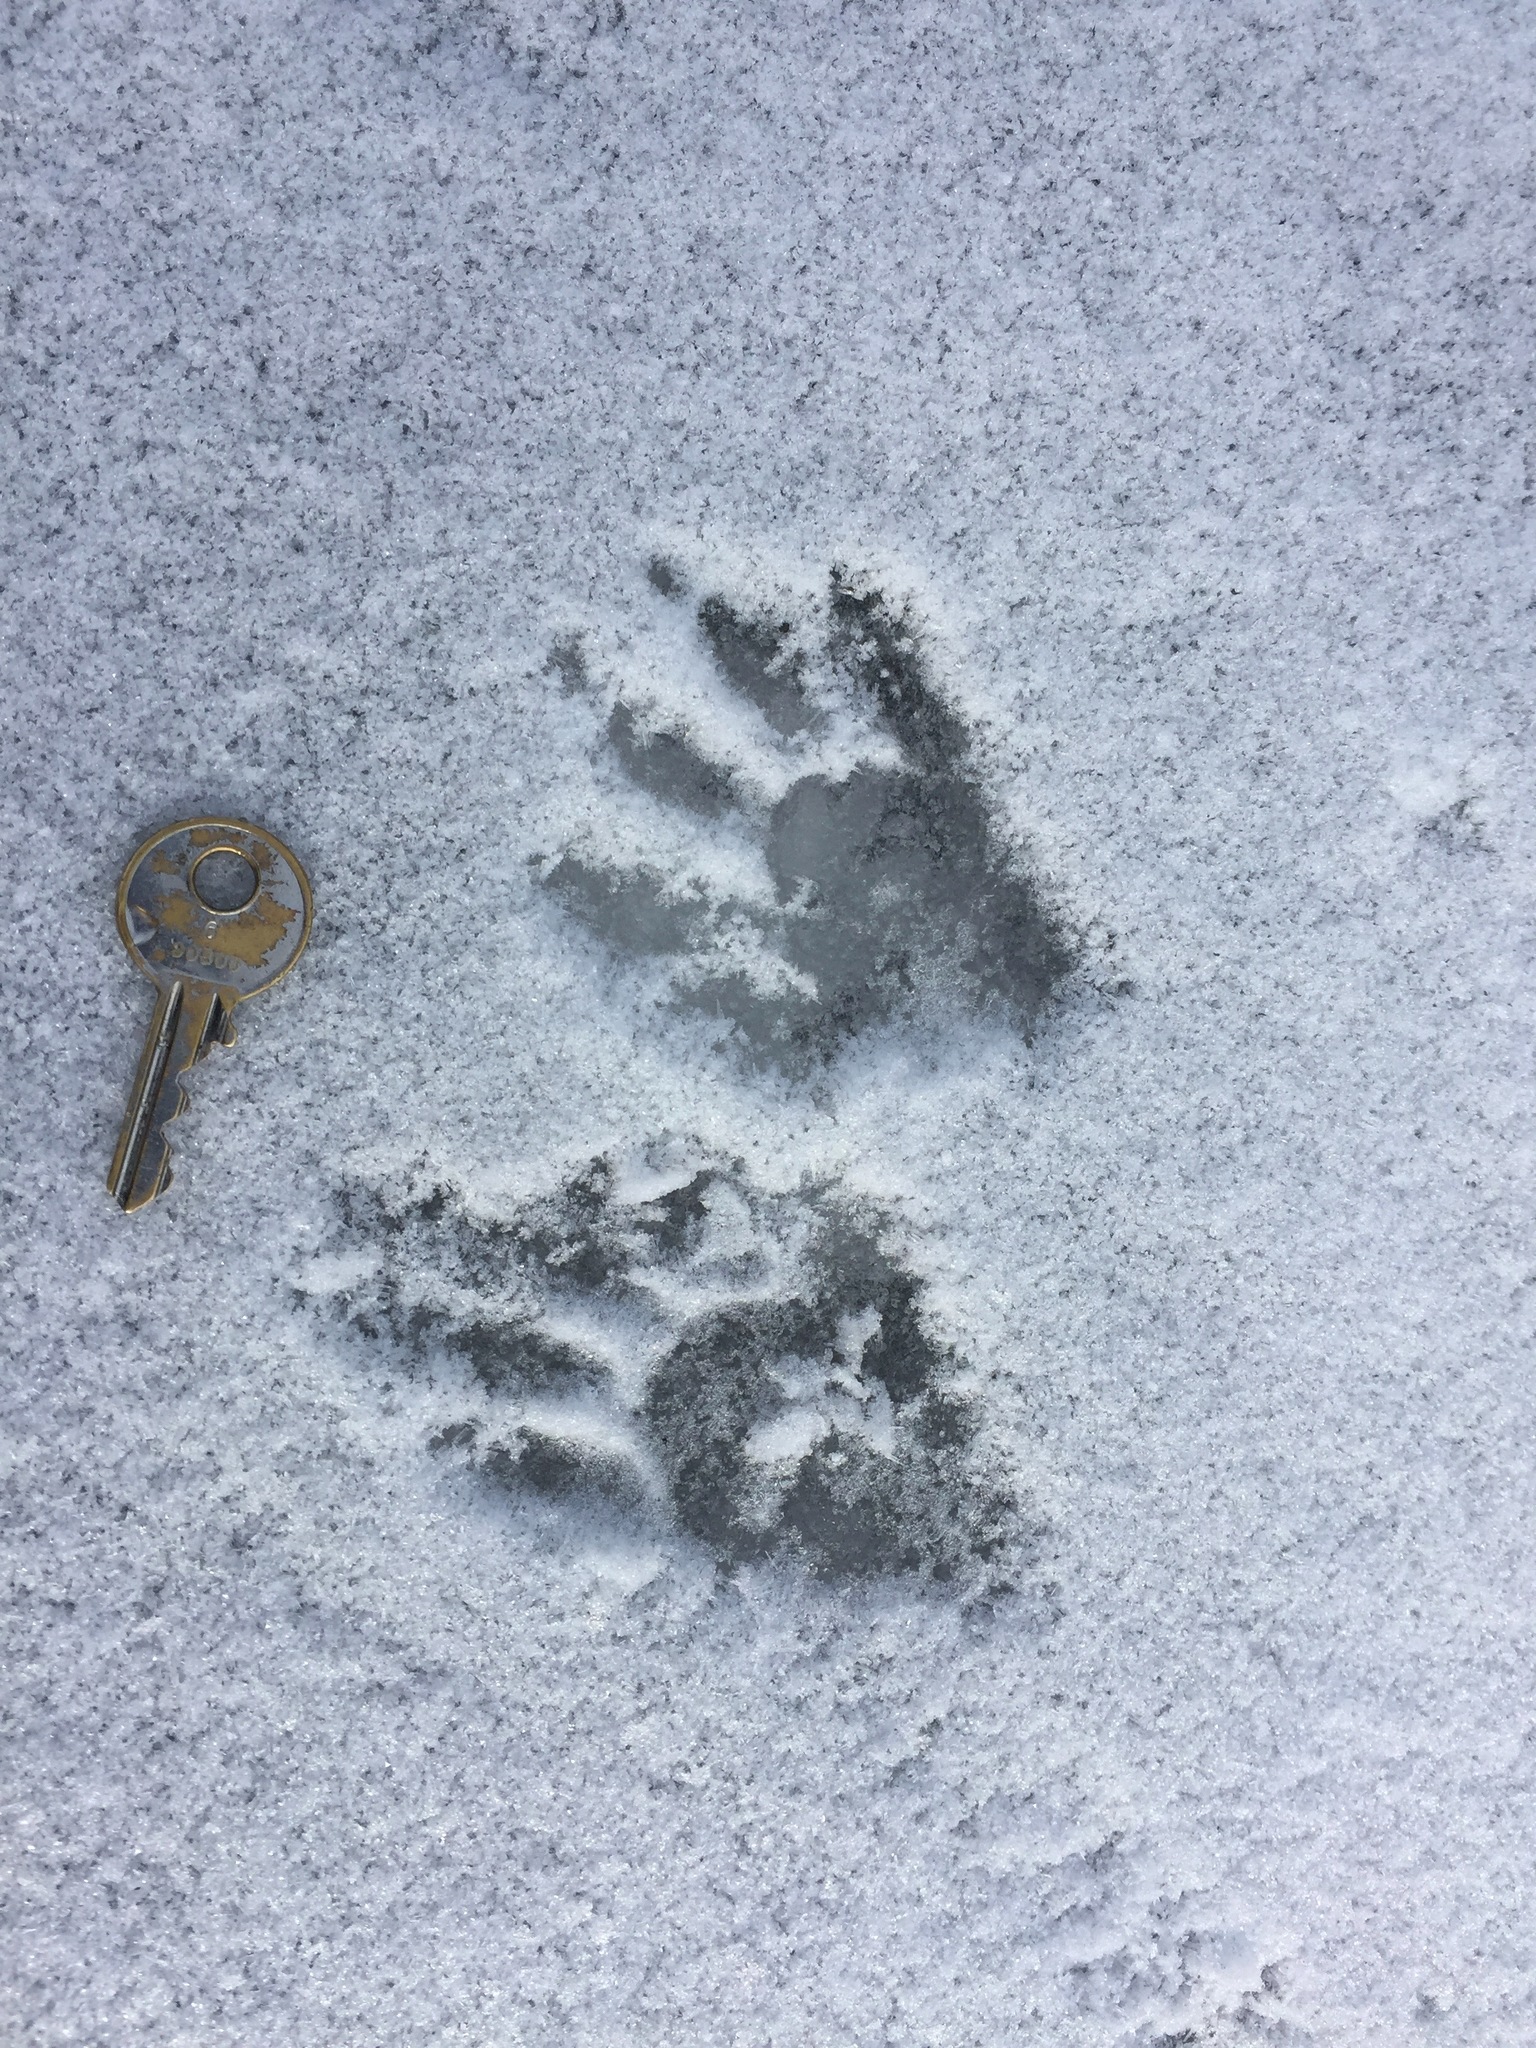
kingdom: Animalia
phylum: Chordata
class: Mammalia
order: Carnivora
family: Procyonidae
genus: Procyon
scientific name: Procyon lotor
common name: Raccoon
